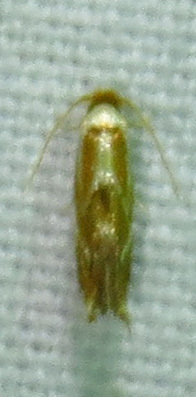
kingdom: Animalia
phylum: Arthropoda
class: Insecta
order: Lepidoptera
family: Lyonetiidae
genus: Philonome
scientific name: Philonome clemensella
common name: Clemen's philonome moth
